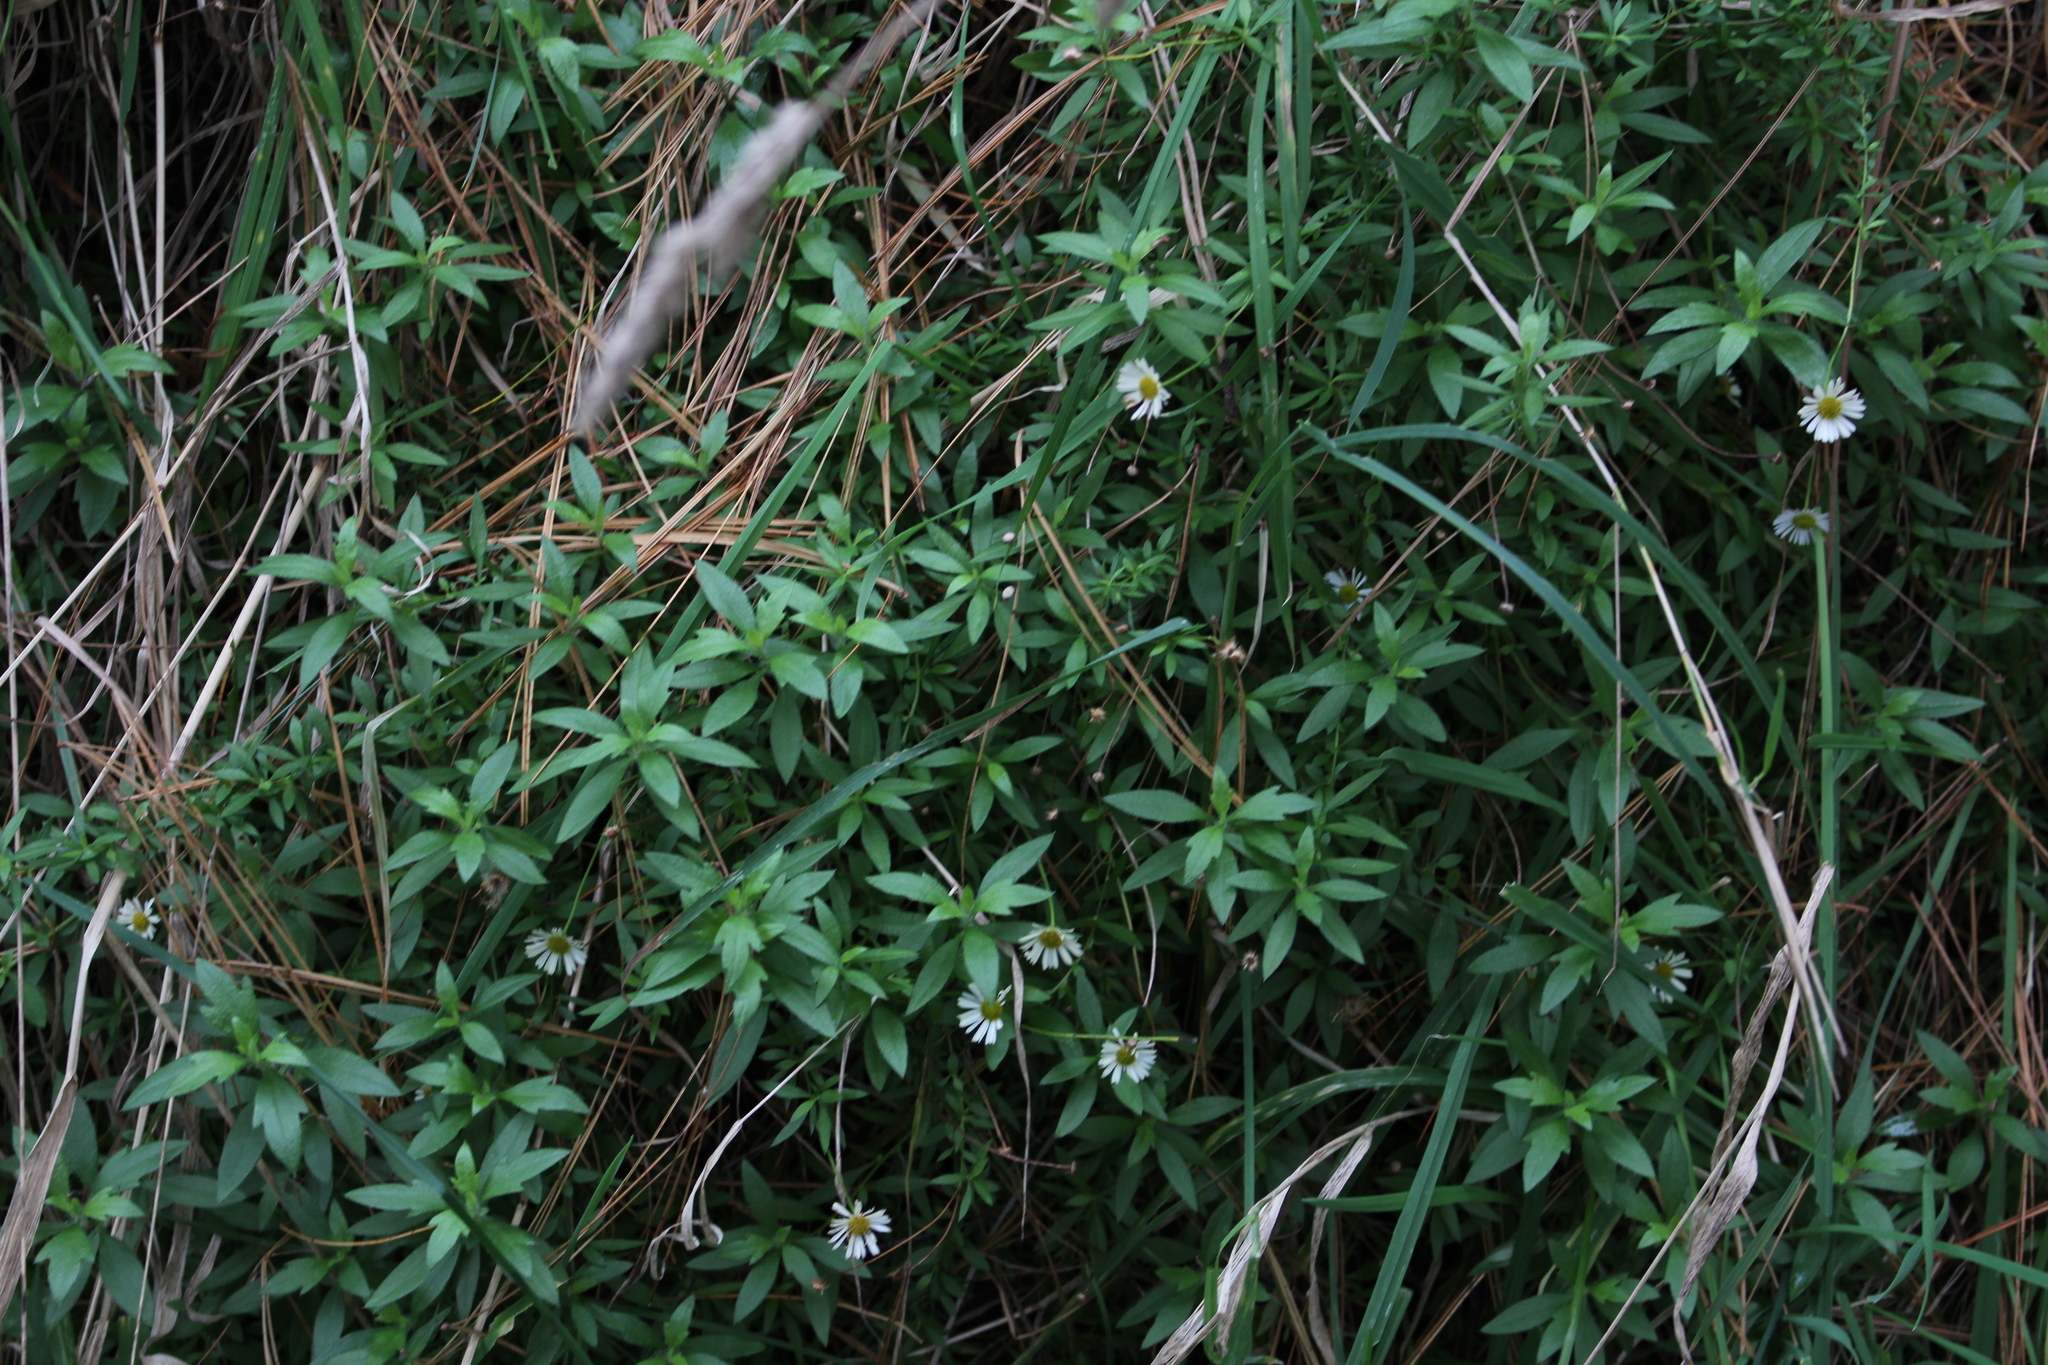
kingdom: Plantae
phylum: Tracheophyta
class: Magnoliopsida
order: Asterales
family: Asteraceae
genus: Erigeron
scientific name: Erigeron karvinskianus
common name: Mexican fleabane
